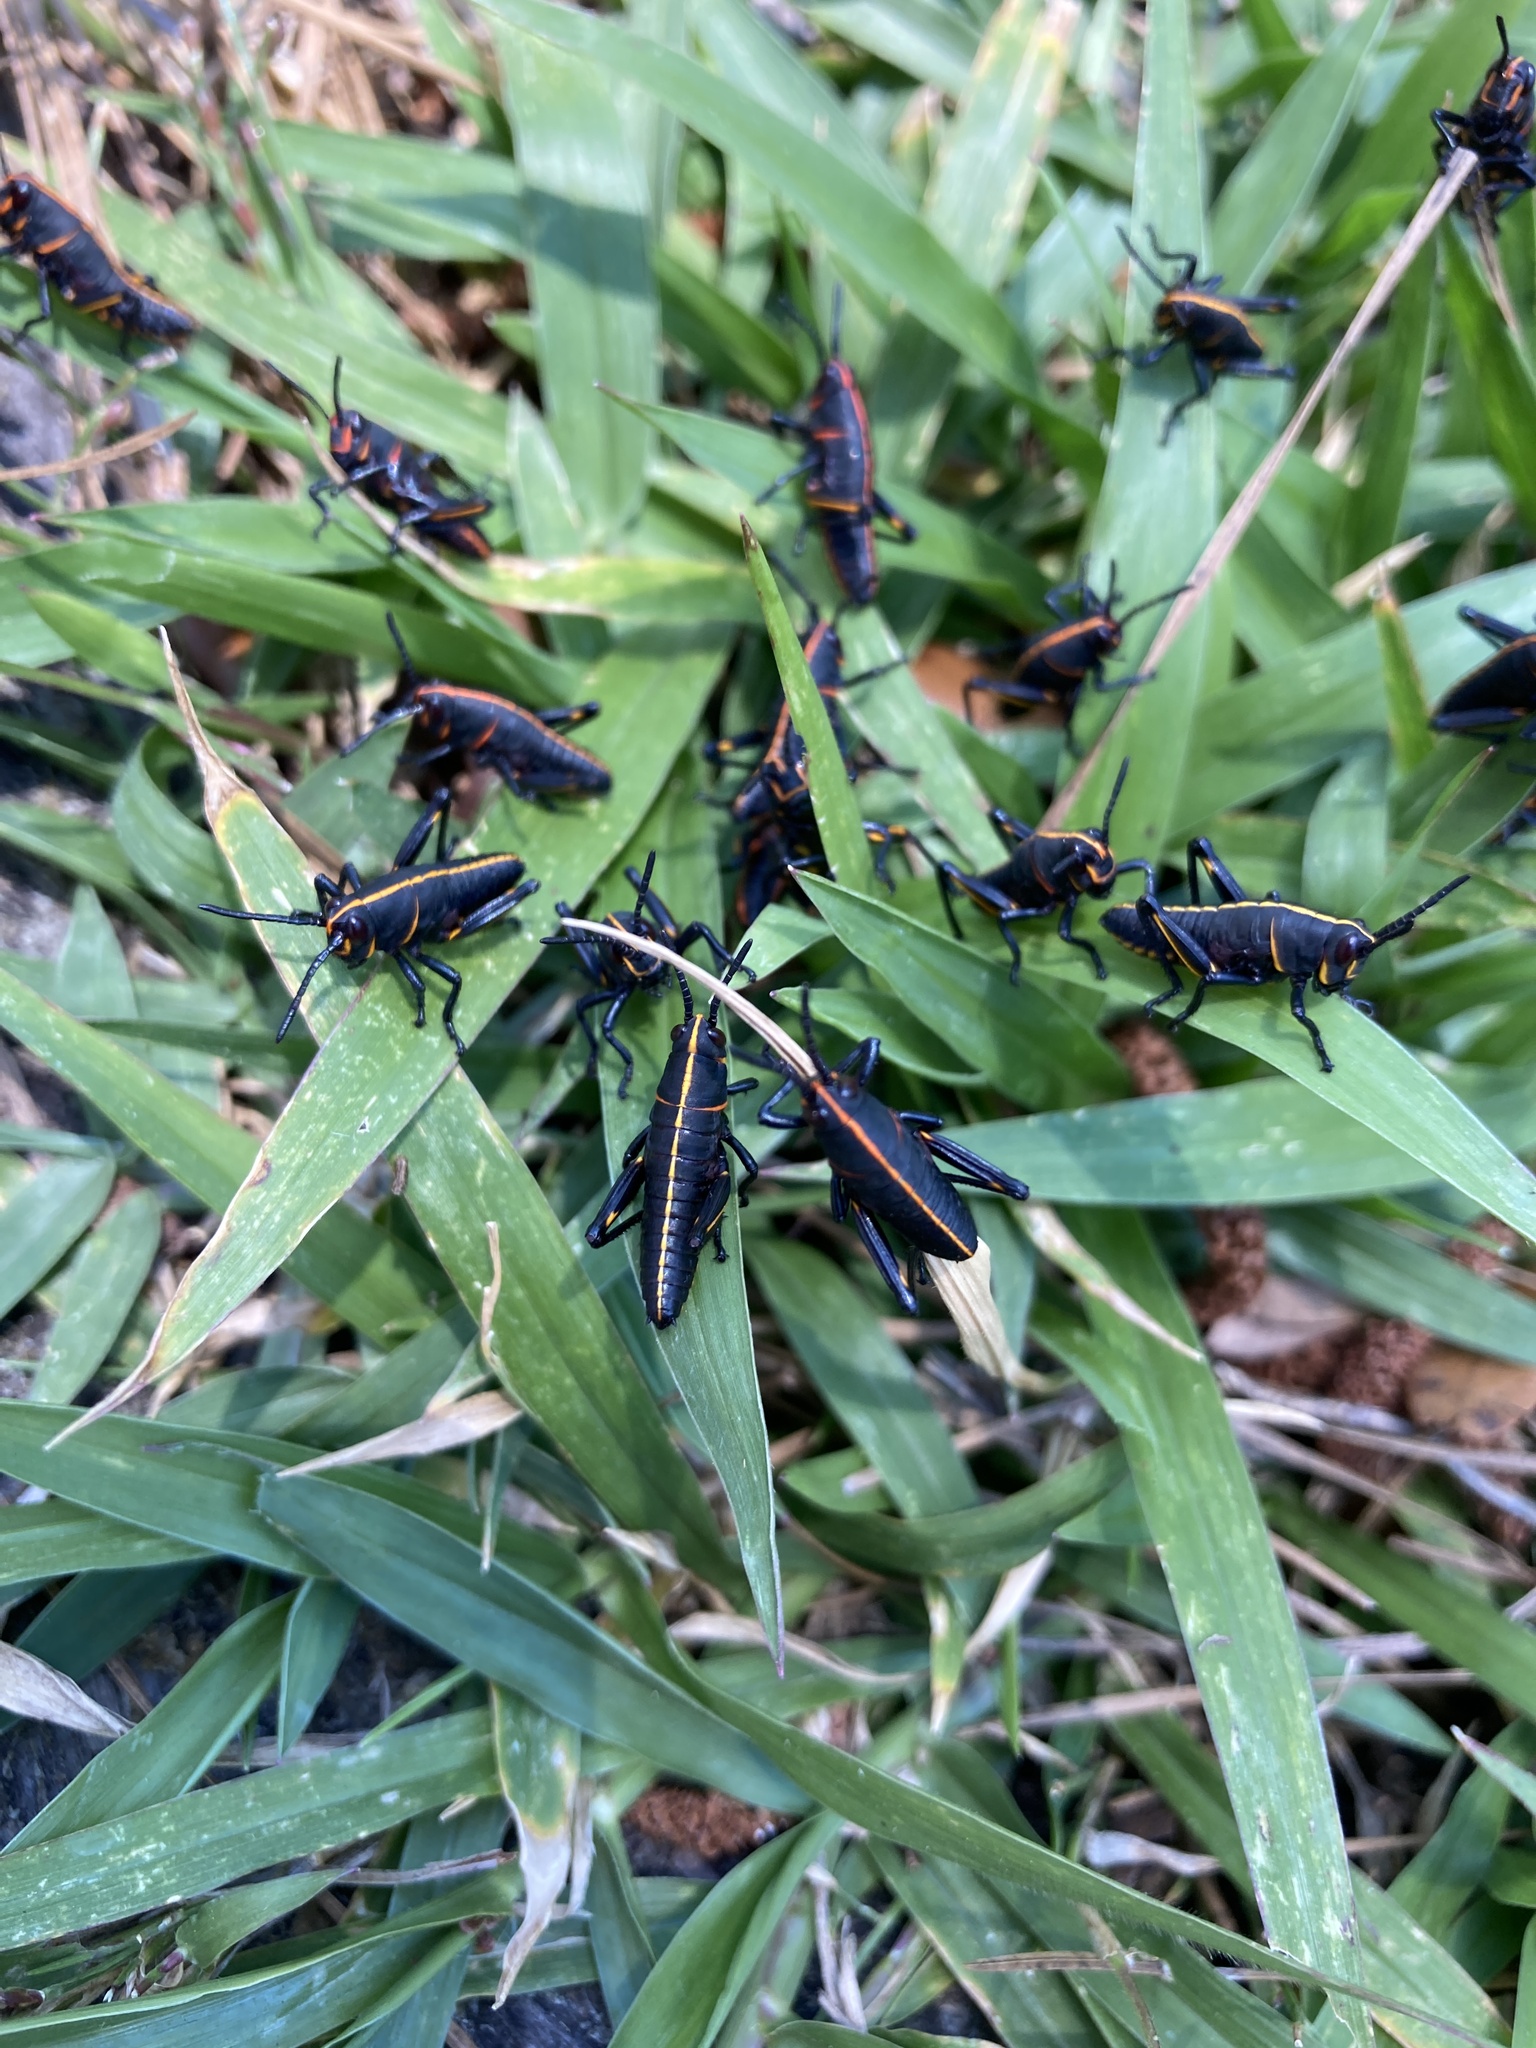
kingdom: Animalia
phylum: Arthropoda
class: Insecta
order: Orthoptera
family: Romaleidae
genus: Romalea
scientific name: Romalea microptera
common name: Eastern lubber grasshopper
